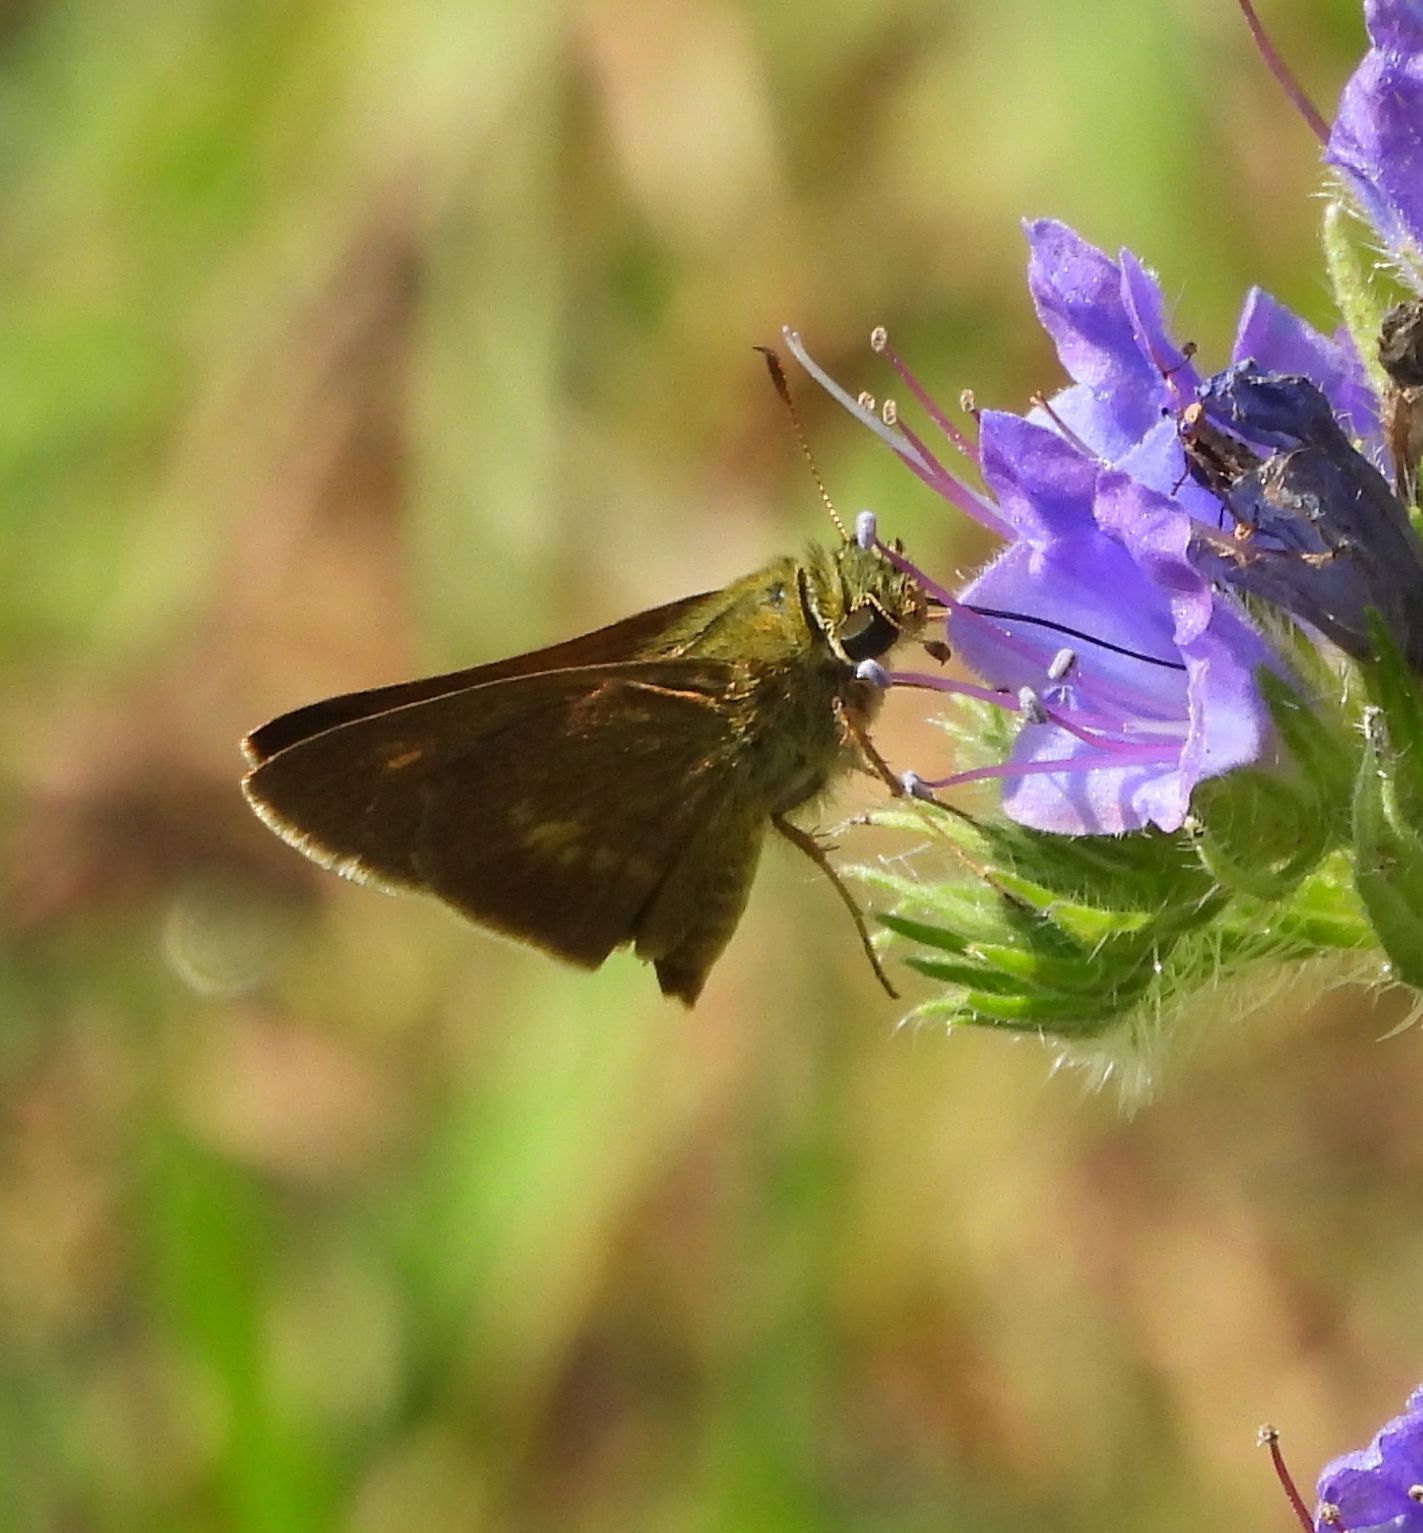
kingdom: Animalia
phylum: Arthropoda
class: Insecta
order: Lepidoptera
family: Hesperiidae
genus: Polites
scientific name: Polites egeremet
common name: Northern broken-dash
